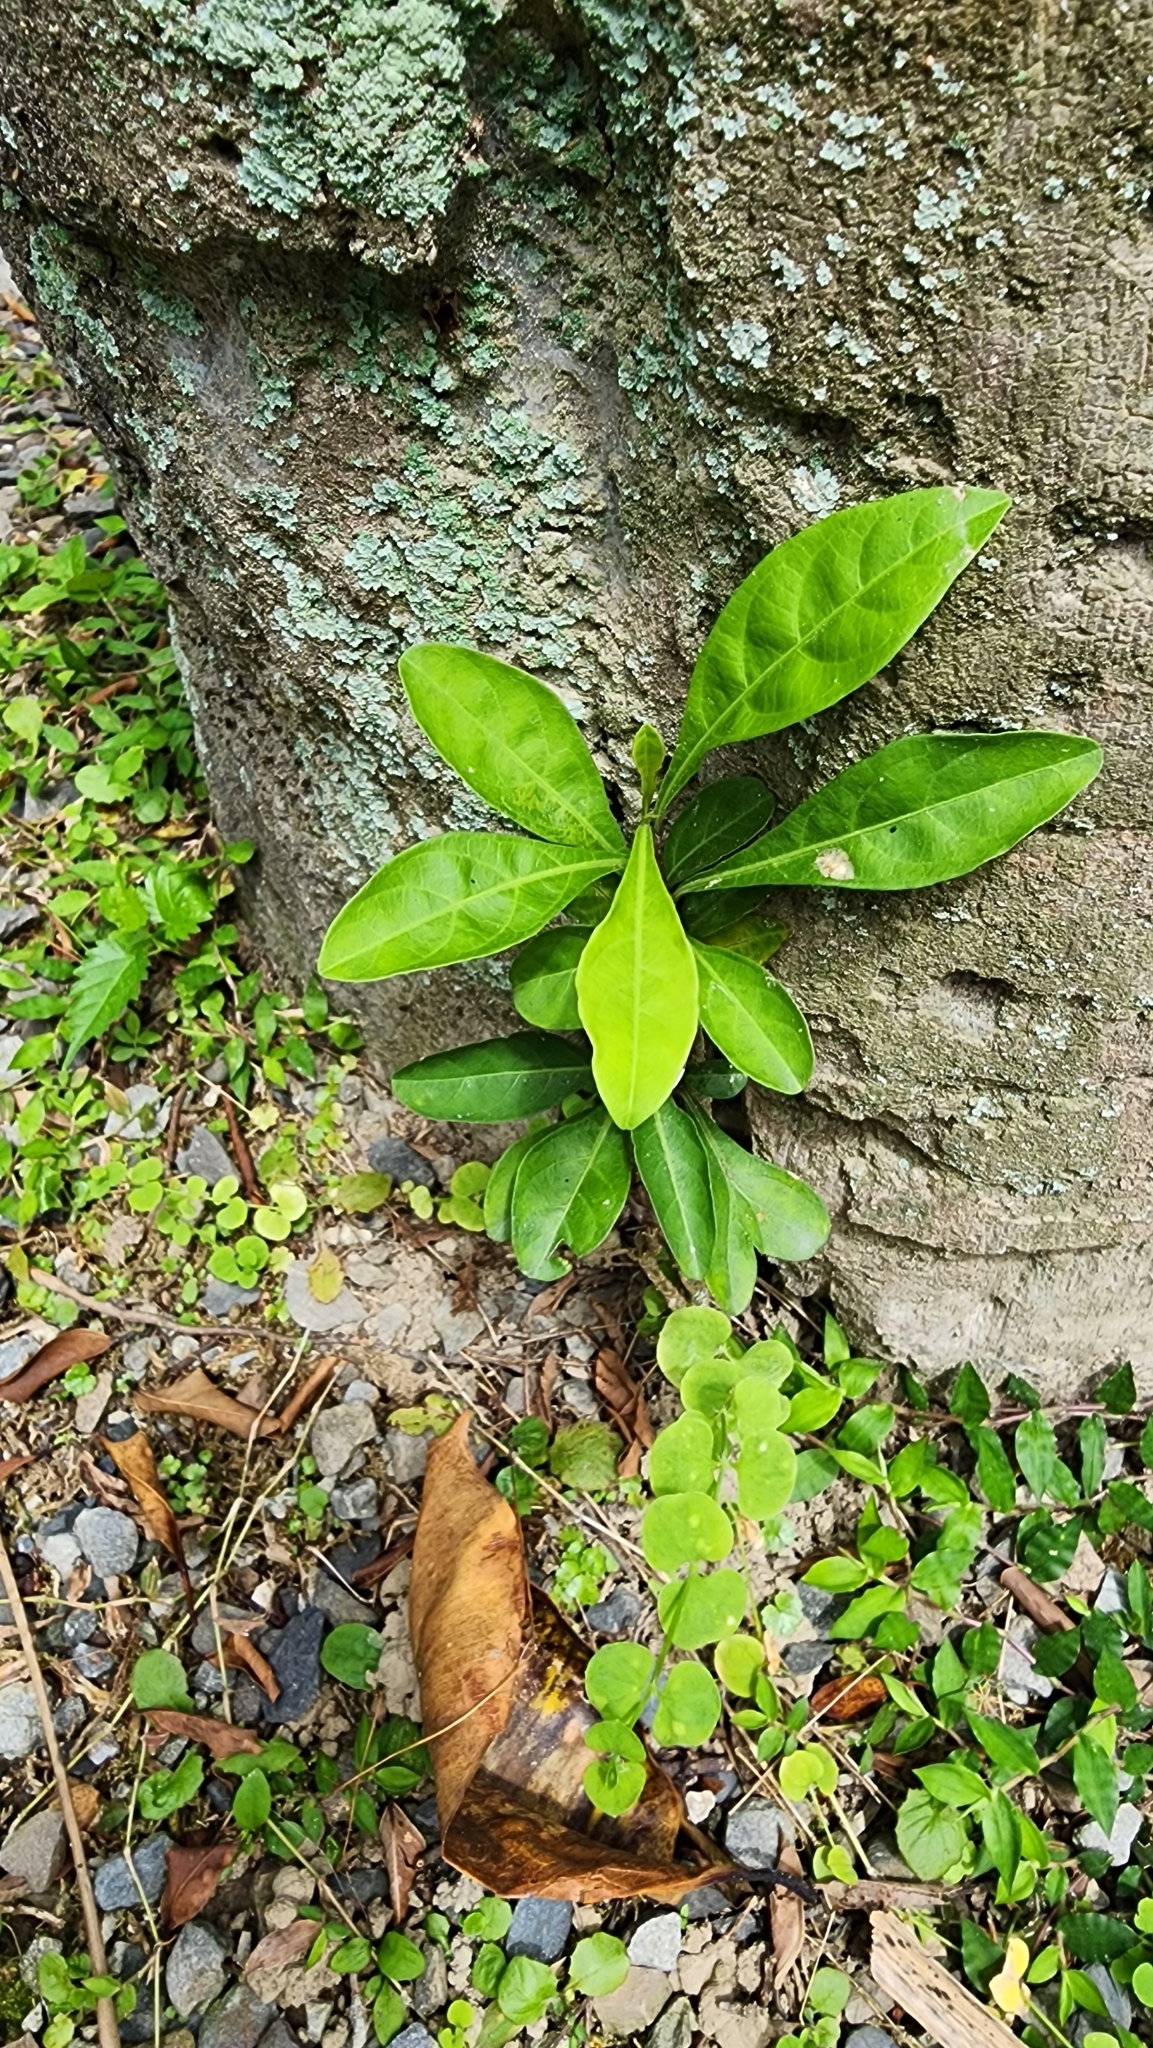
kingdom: Plantae
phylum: Tracheophyta
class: Magnoliopsida
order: Solanales
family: Solanaceae
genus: Solanum
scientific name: Solanum diphyllum
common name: Twoleaf nightshade
